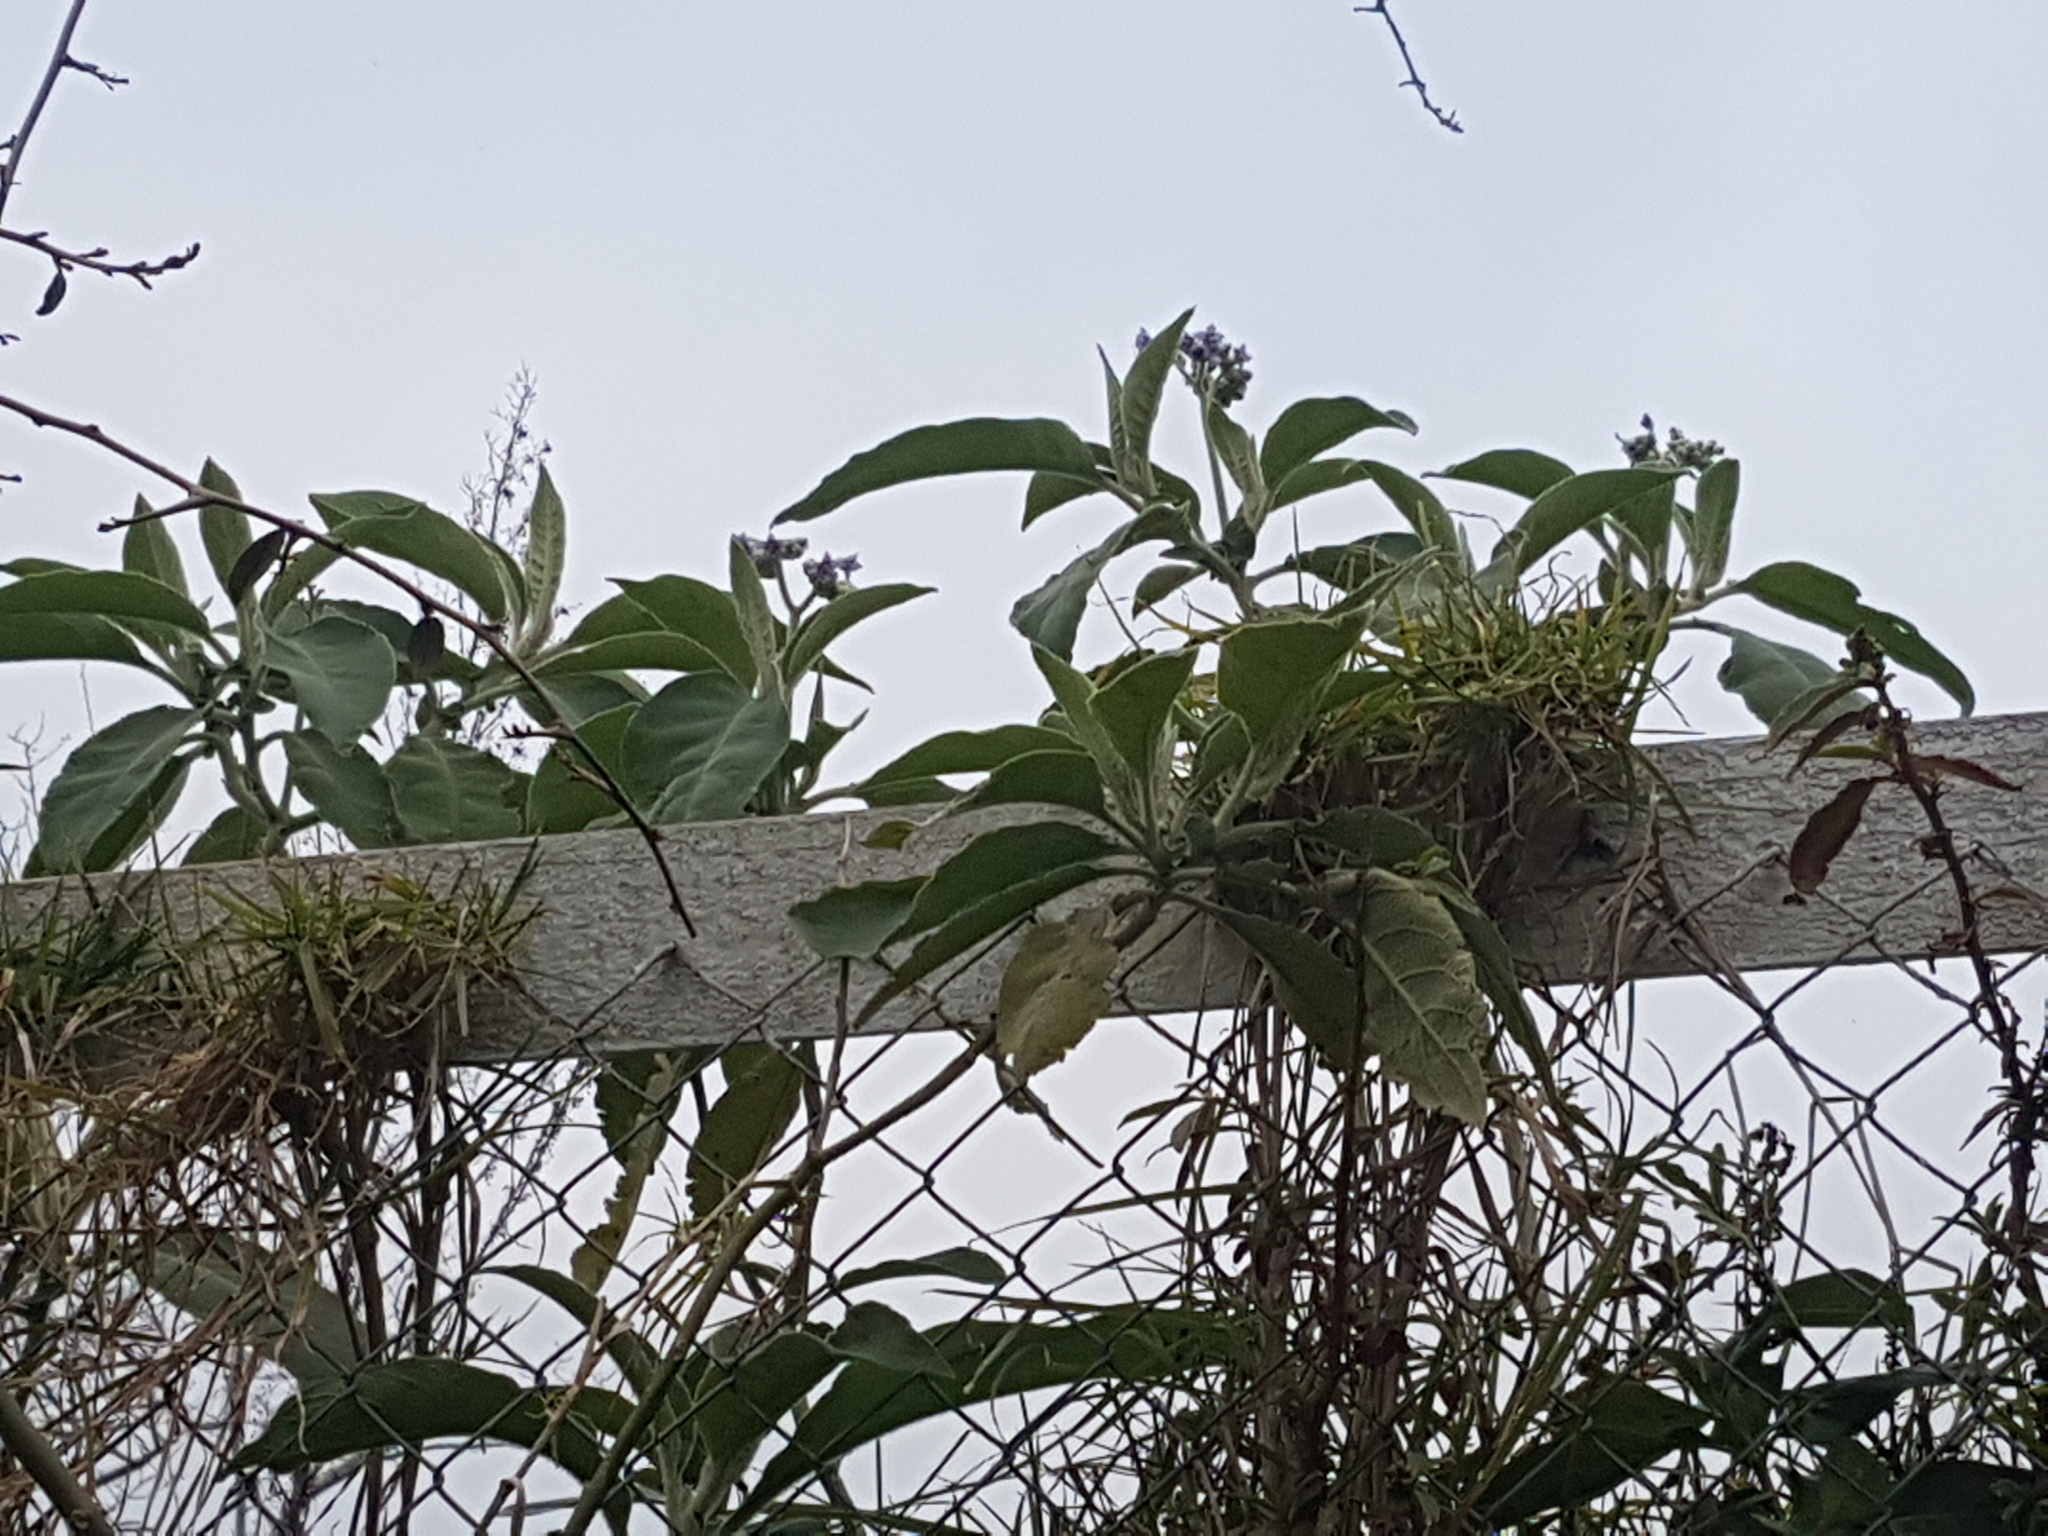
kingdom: Plantae
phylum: Tracheophyta
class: Magnoliopsida
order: Solanales
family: Solanaceae
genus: Solanum
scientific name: Solanum mauritianum
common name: Earleaf nightshade
